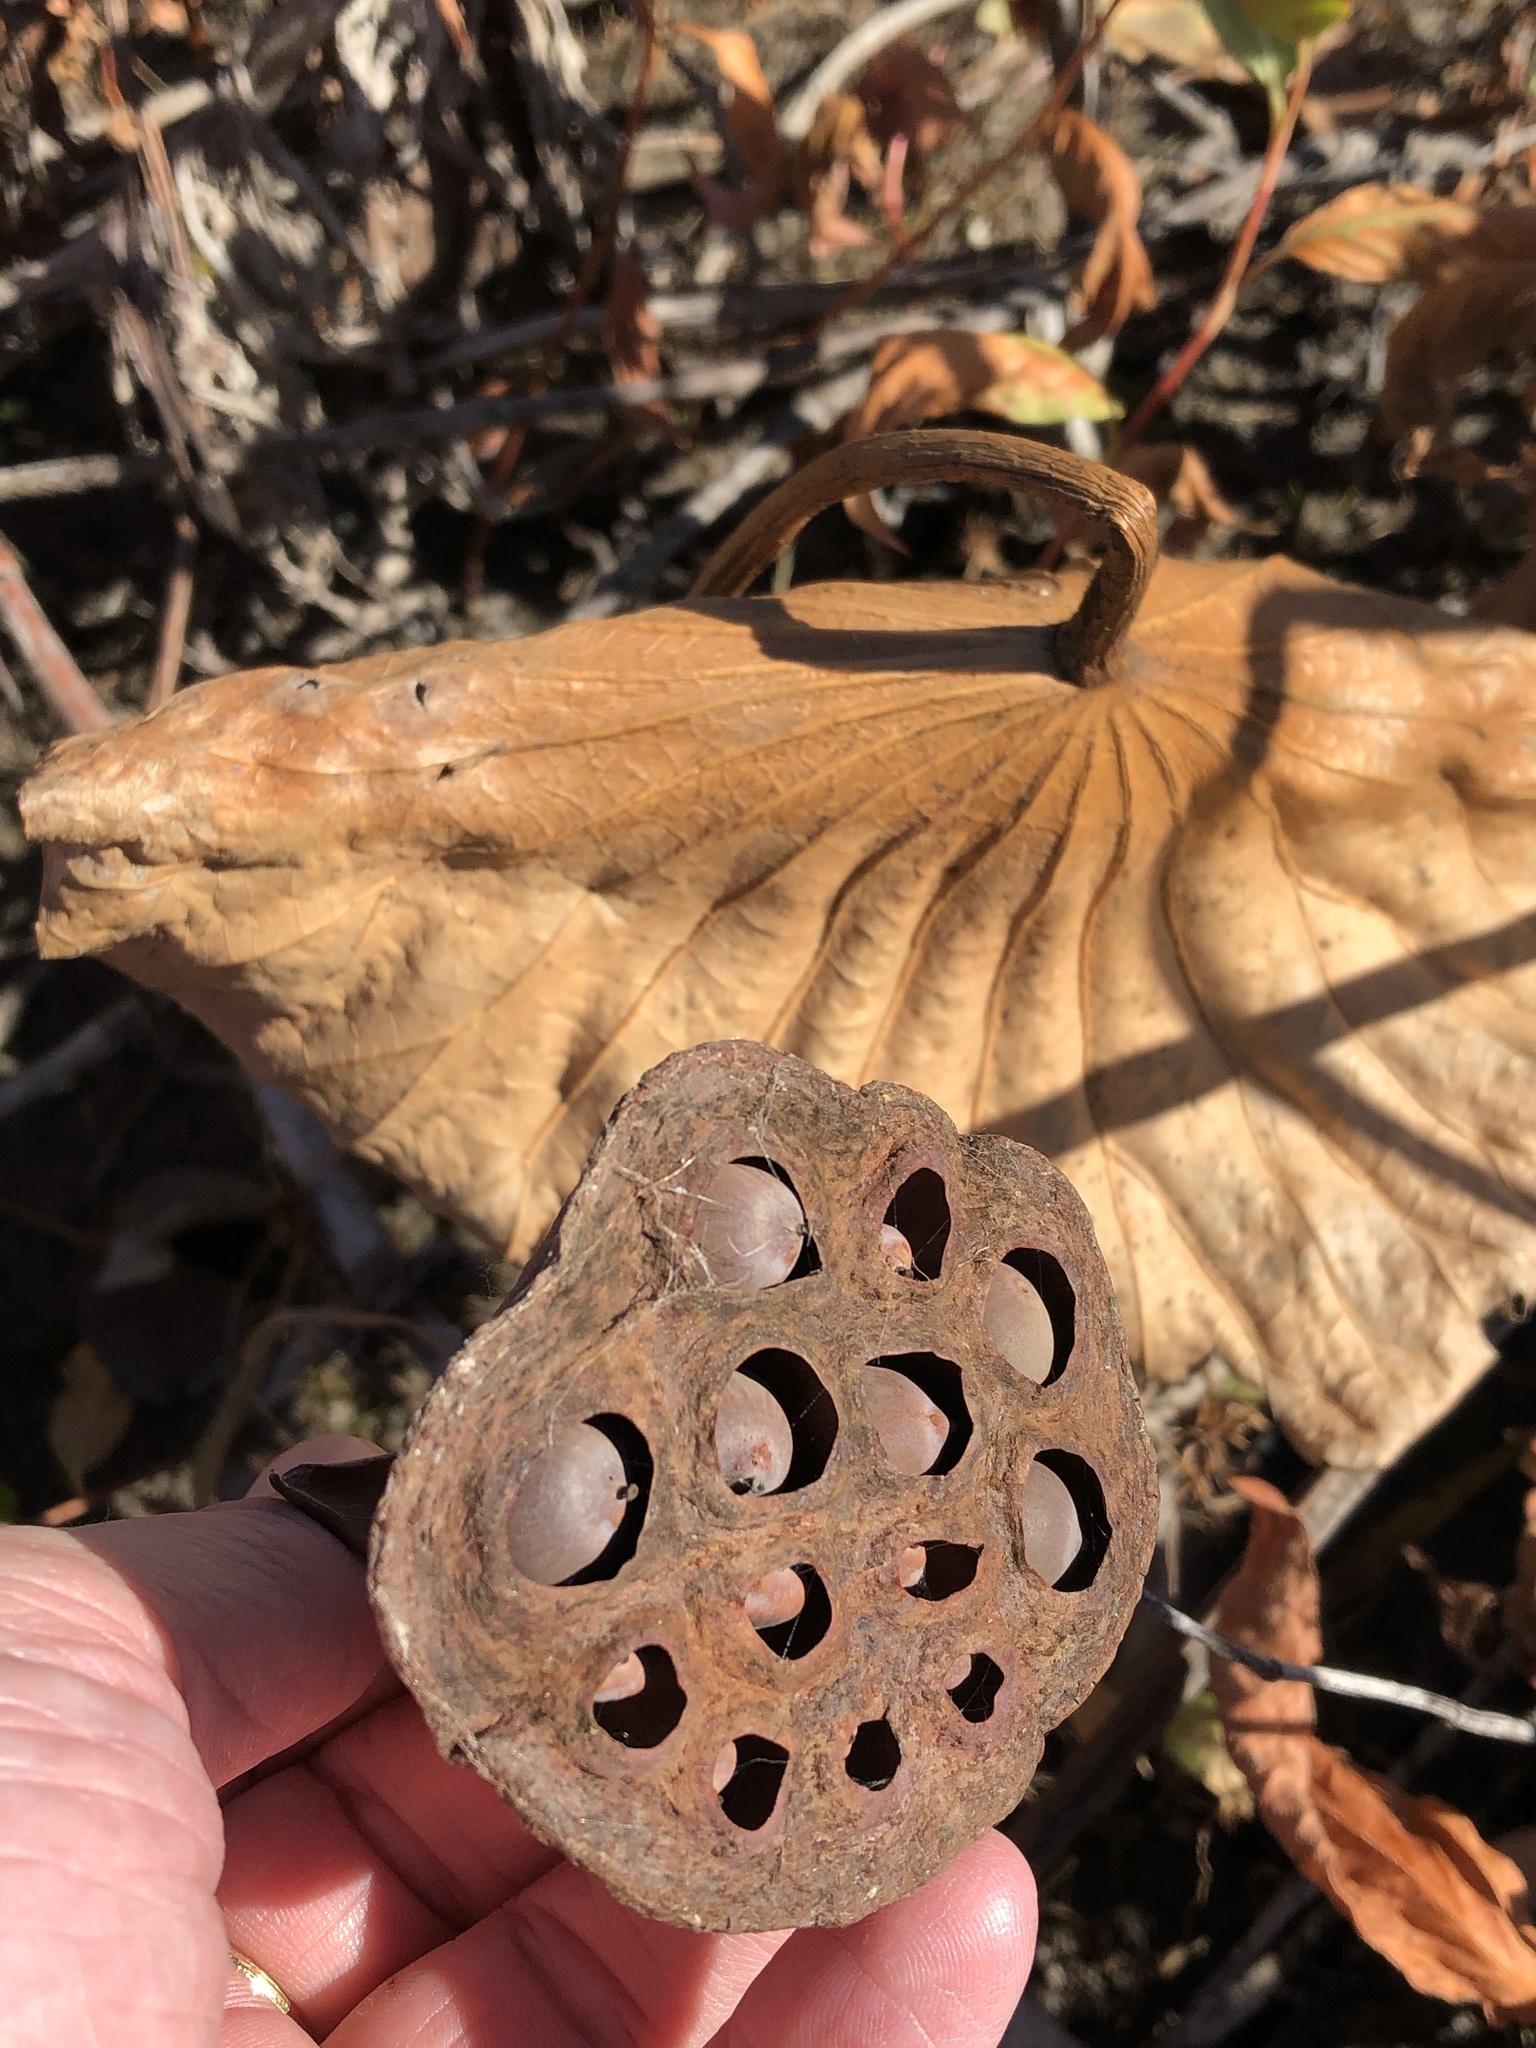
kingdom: Plantae
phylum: Tracheophyta
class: Magnoliopsida
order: Proteales
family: Nelumbonaceae
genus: Nelumbo
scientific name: Nelumbo lutea
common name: American lotus
